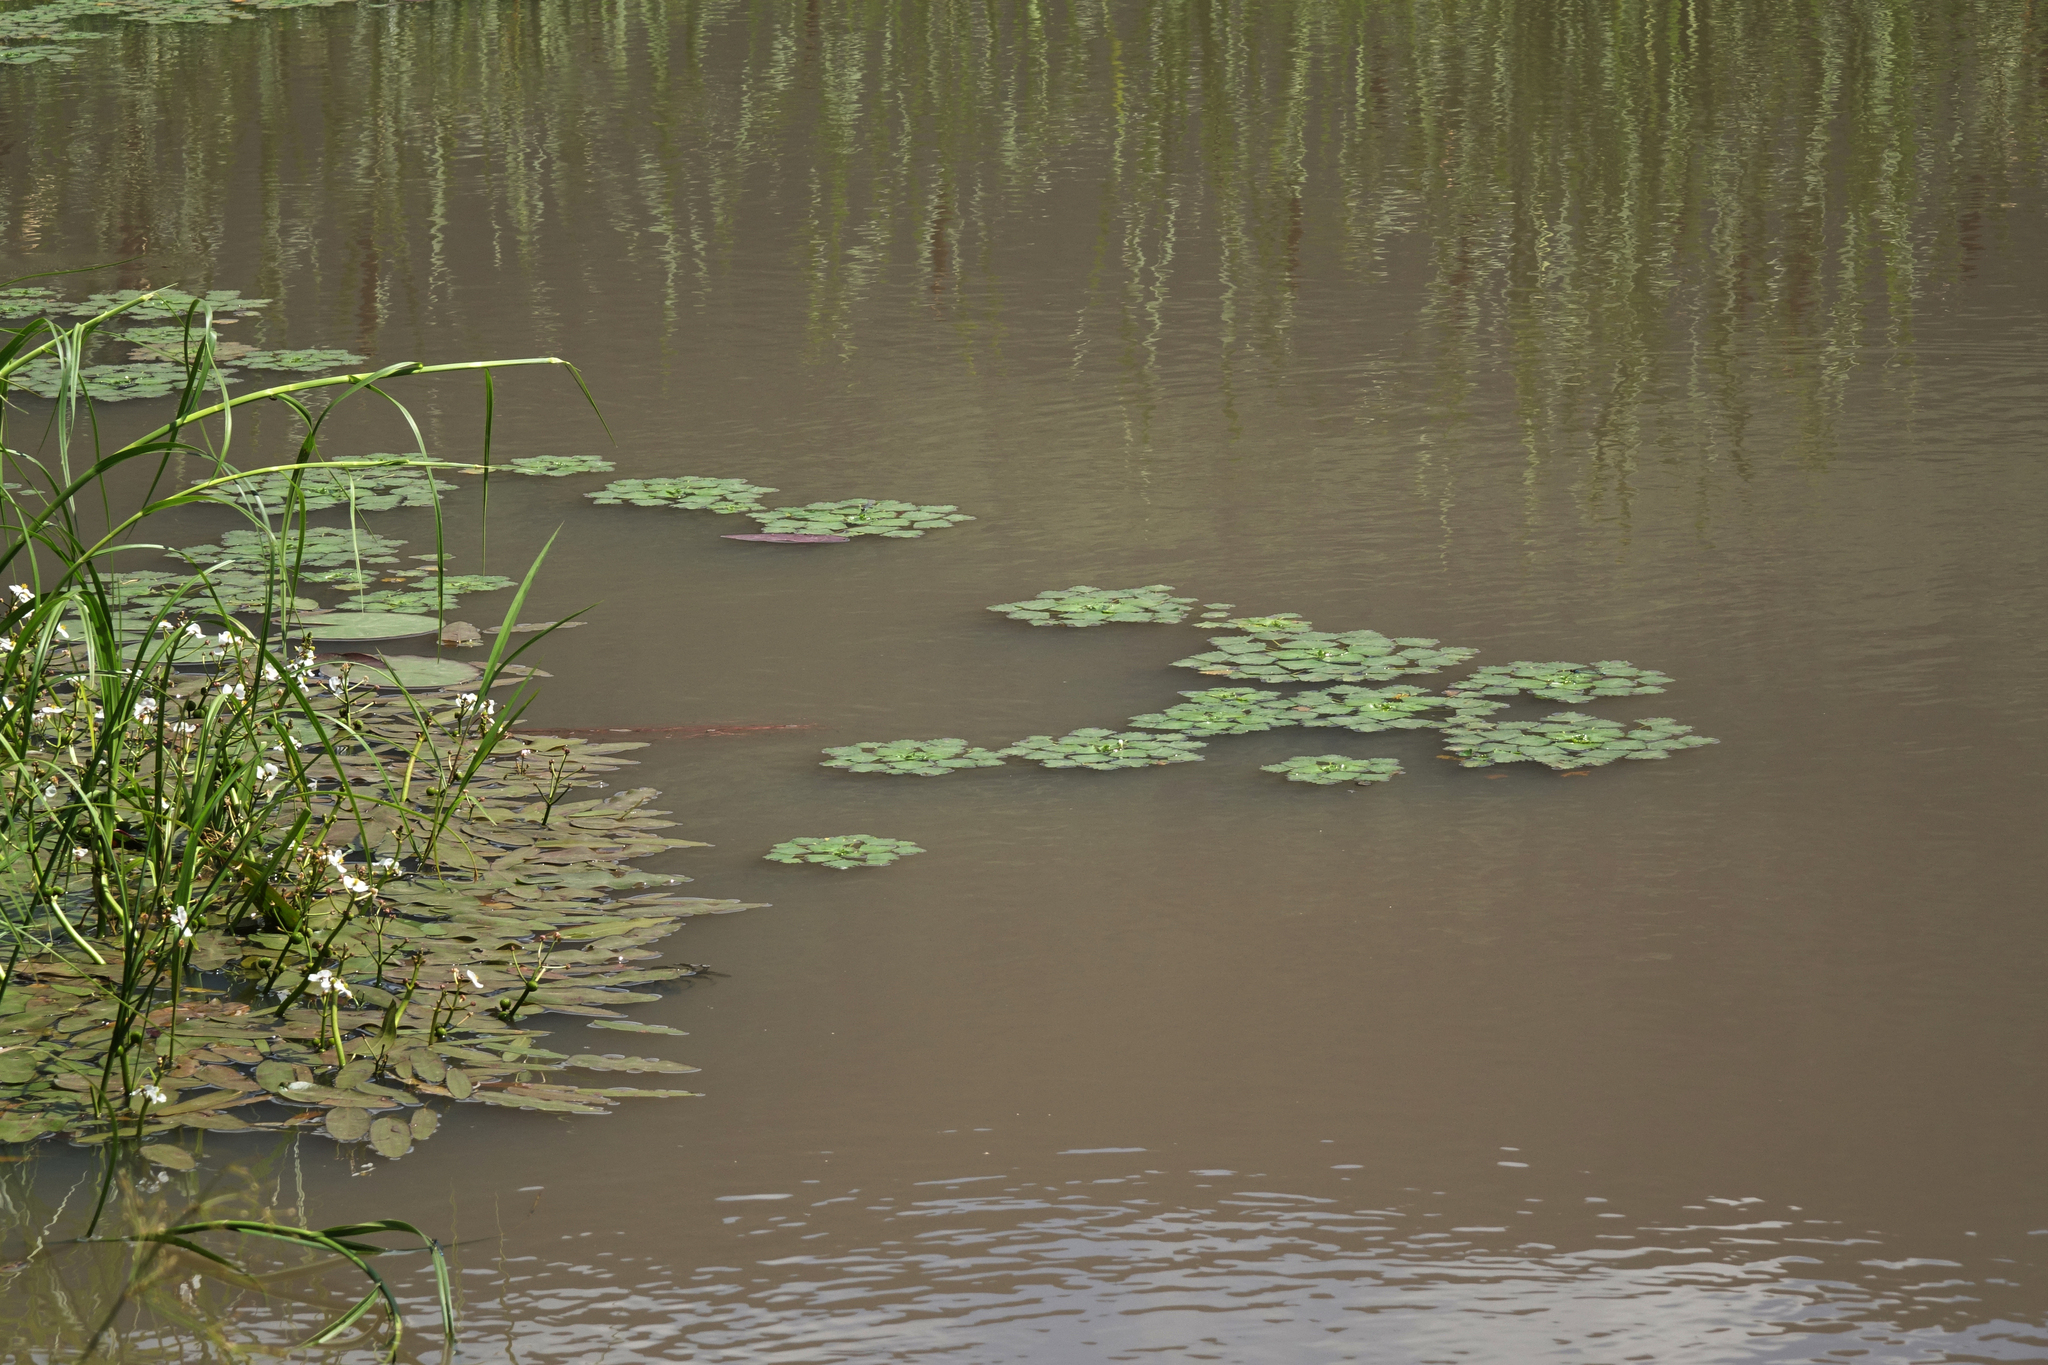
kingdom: Plantae
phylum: Tracheophyta
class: Magnoliopsida
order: Myrtales
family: Lythraceae
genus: Trapa
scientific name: Trapa natans
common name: Water chestnut
